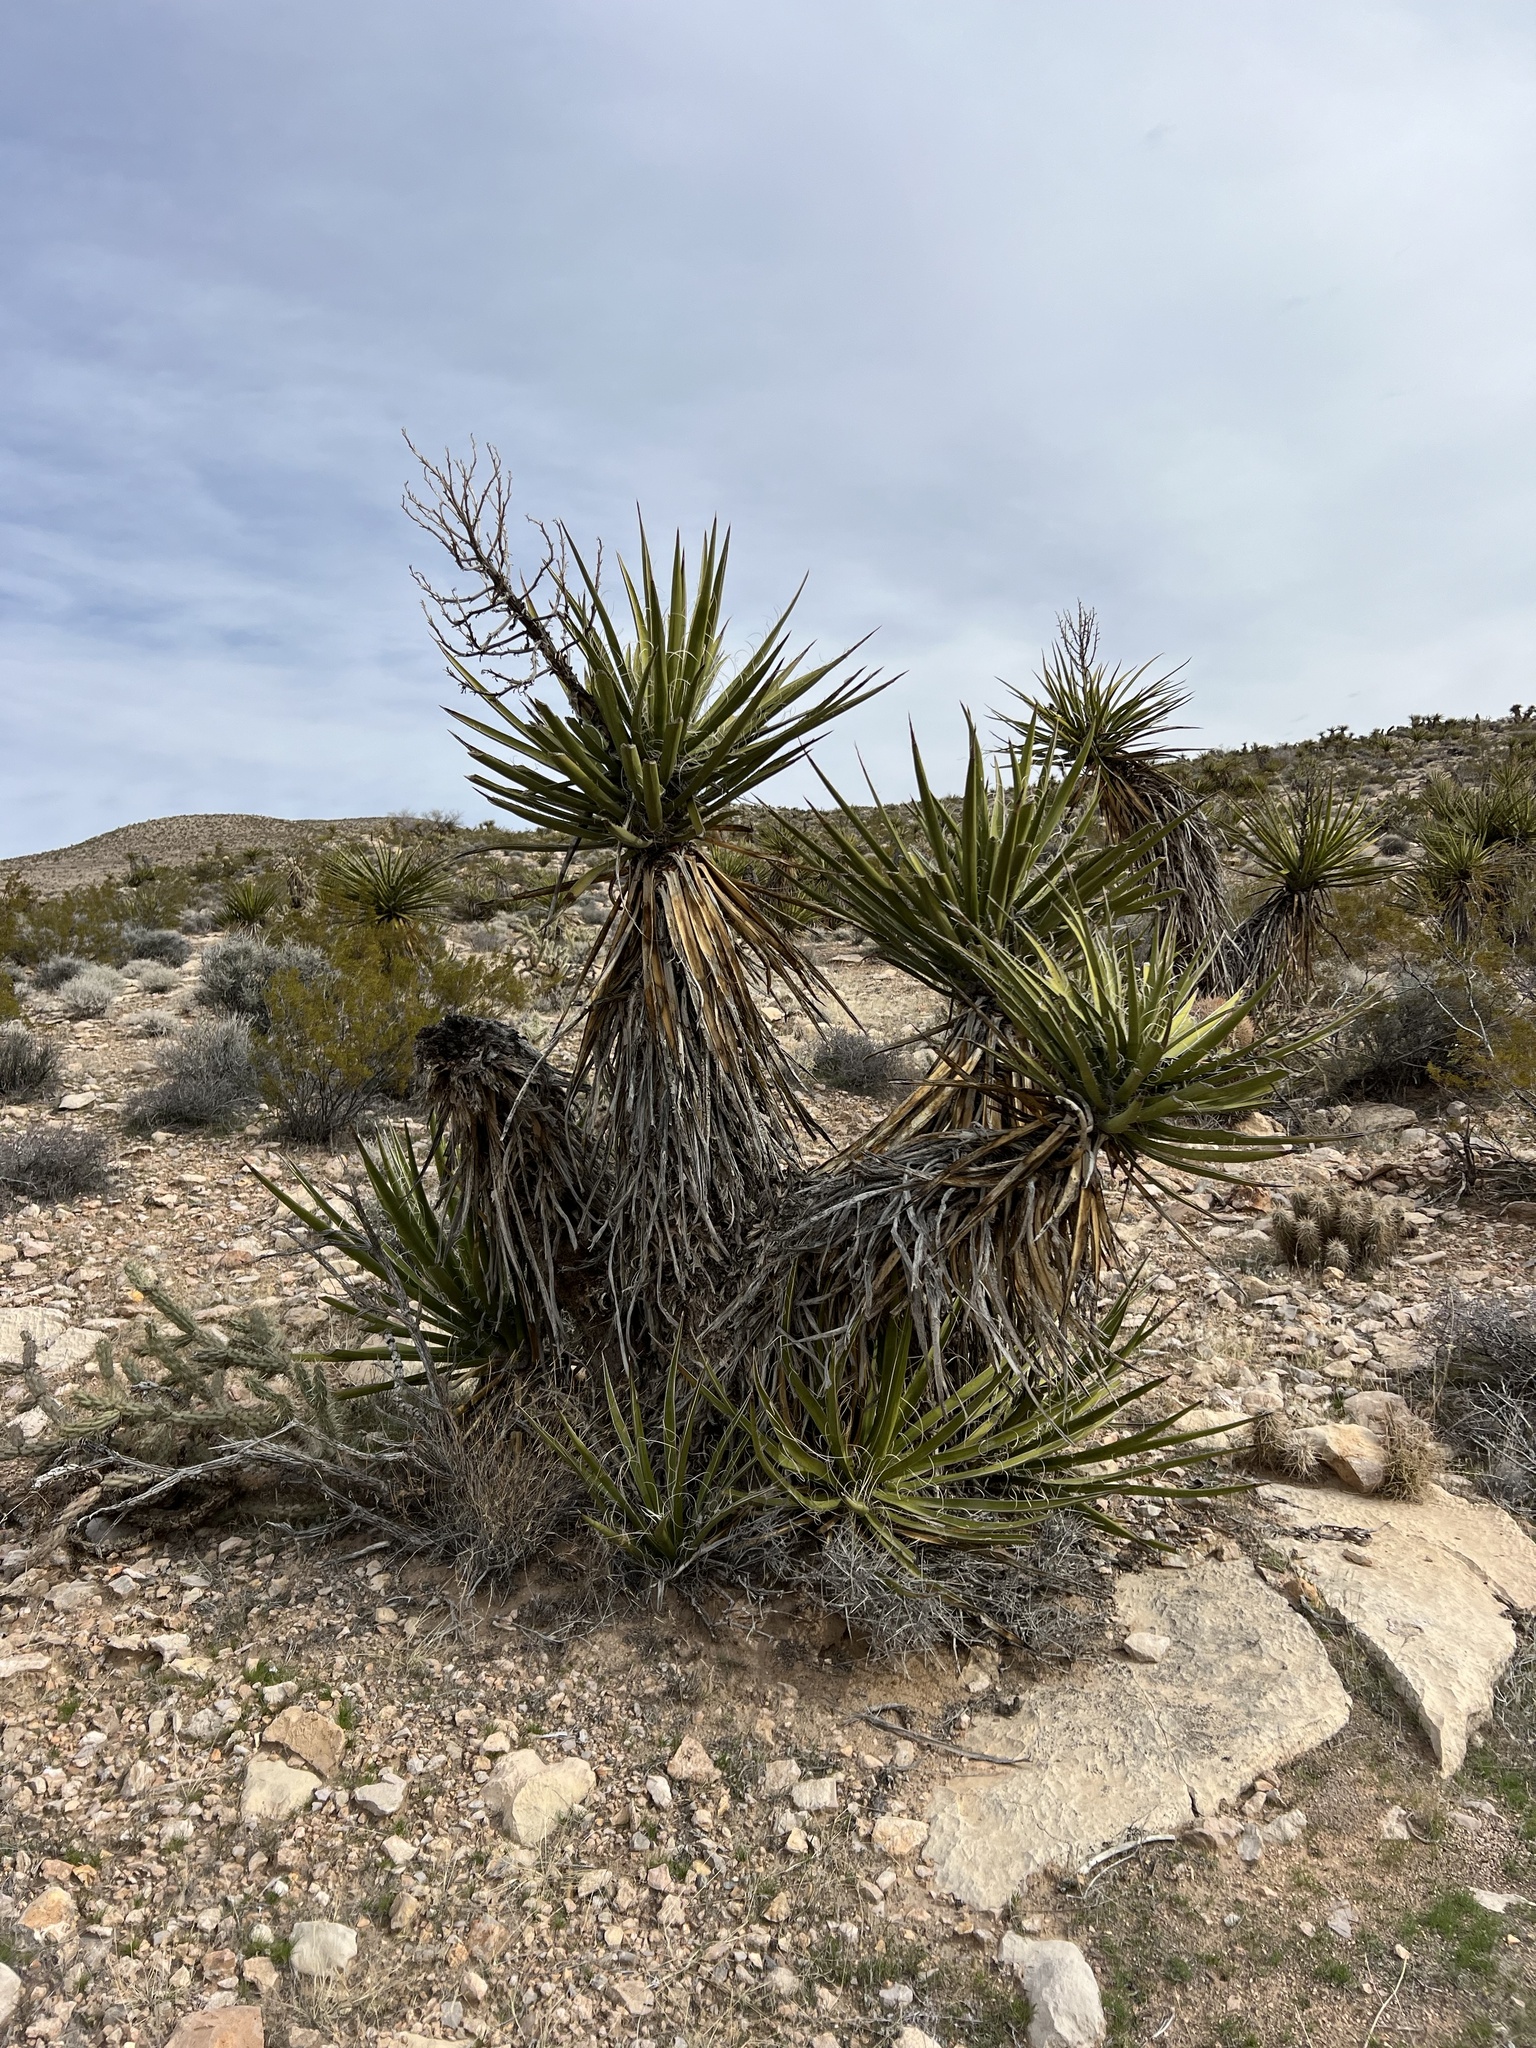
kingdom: Plantae
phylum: Tracheophyta
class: Liliopsida
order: Asparagales
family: Asparagaceae
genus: Yucca
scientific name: Yucca schidigera
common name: Mojave yucca
